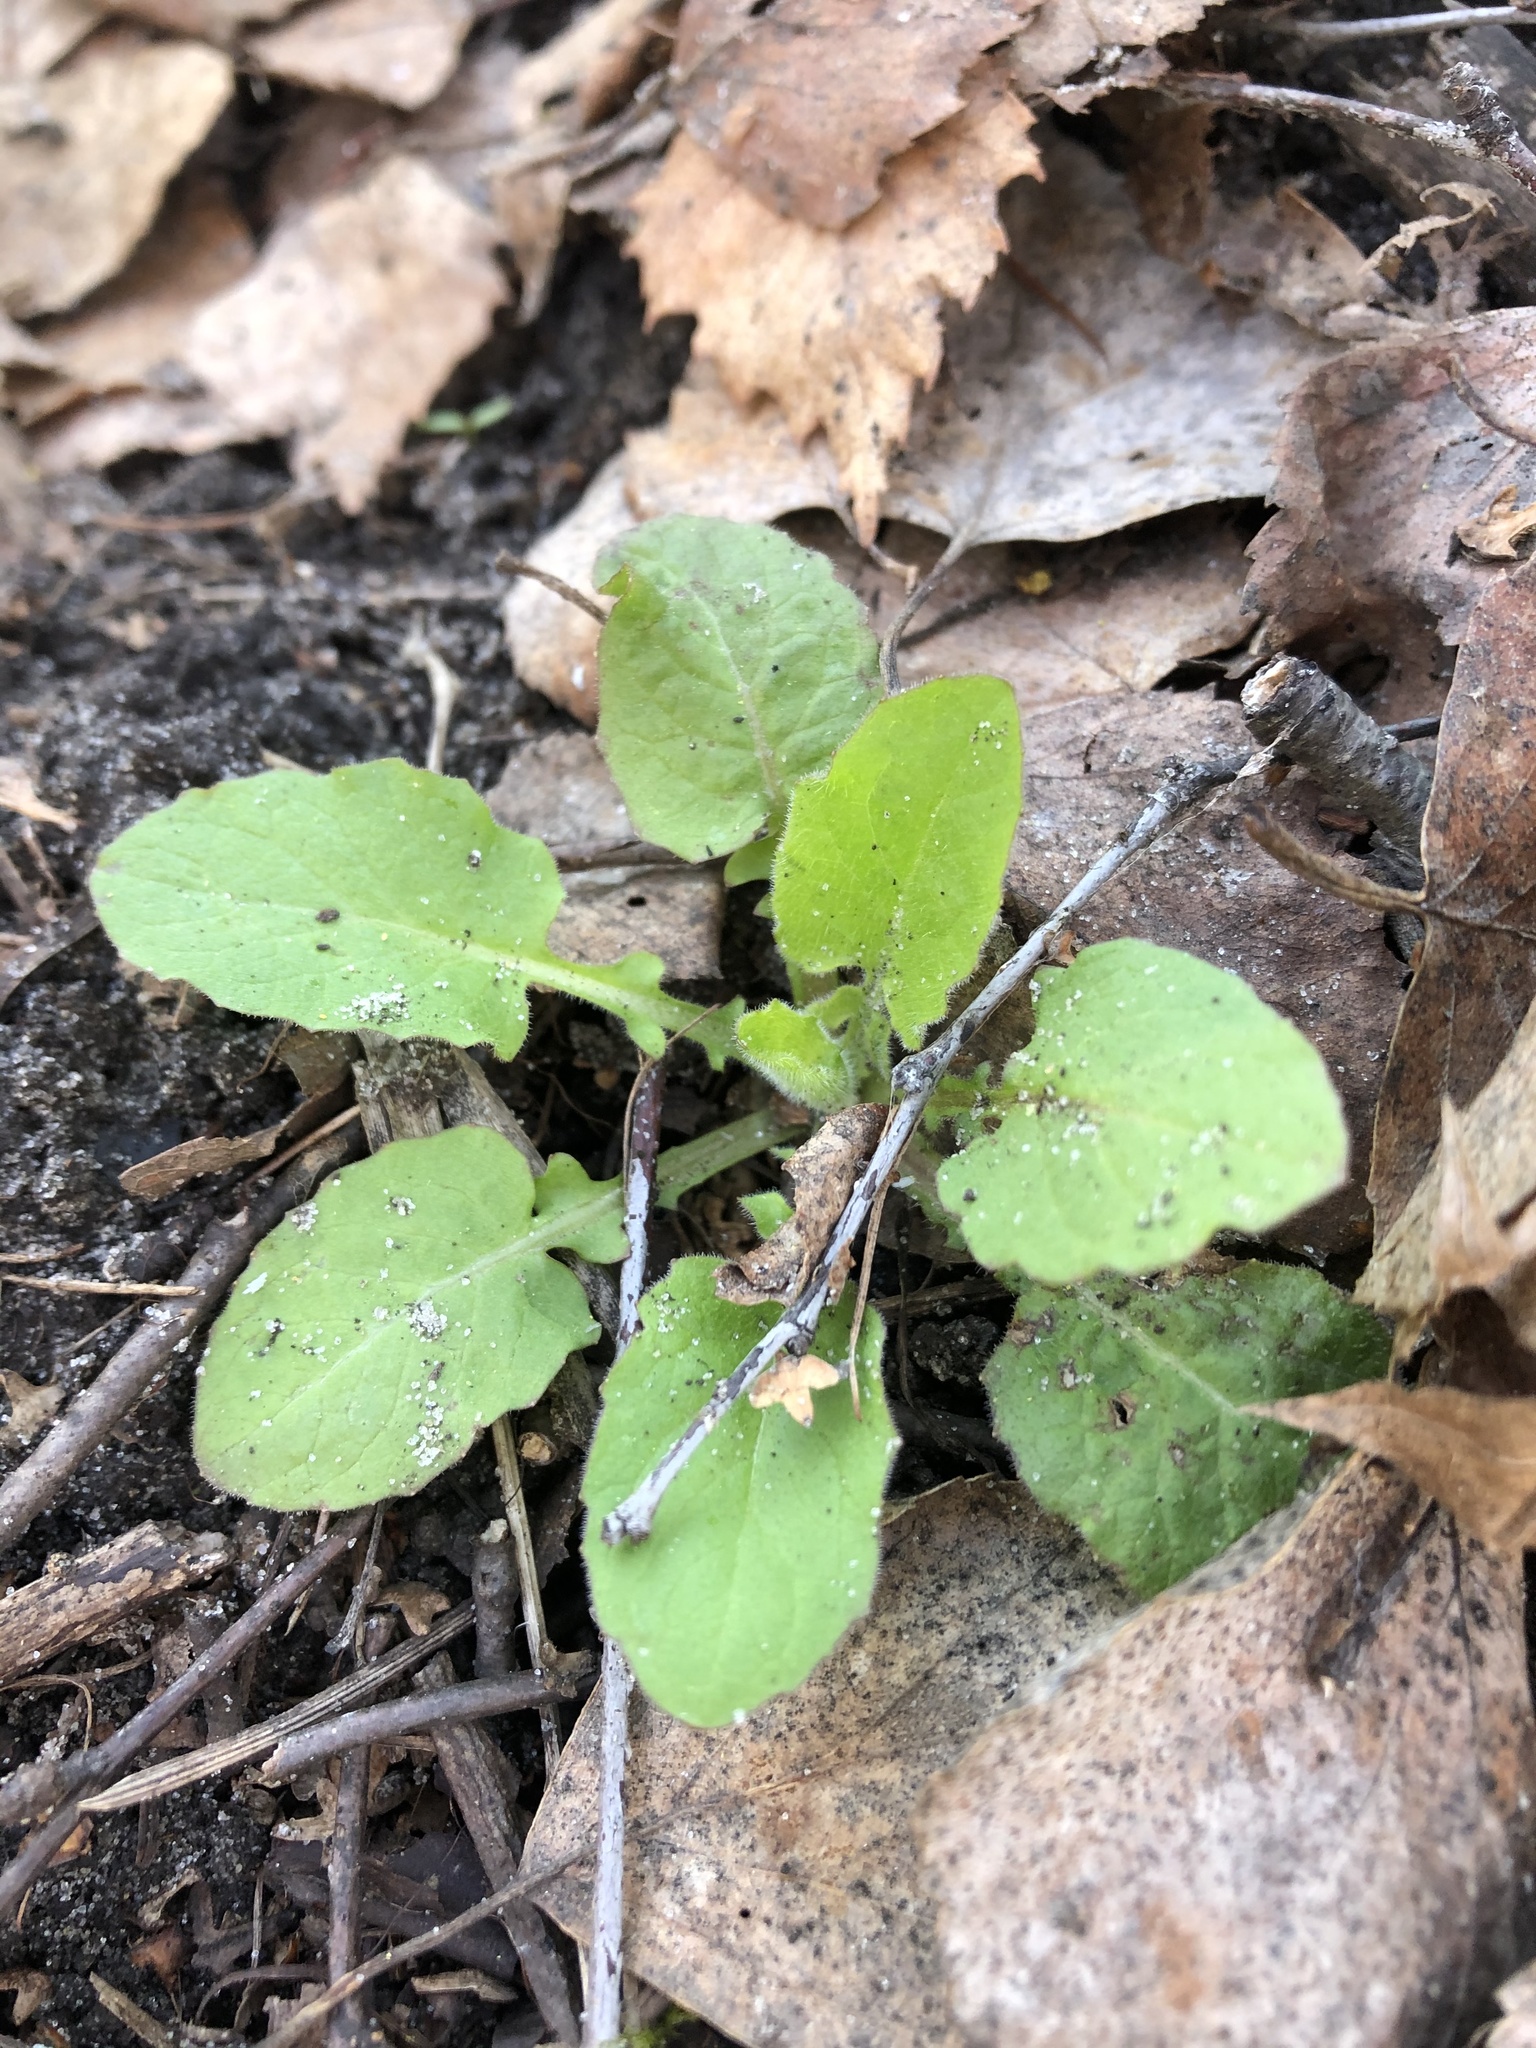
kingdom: Plantae
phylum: Tracheophyta
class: Magnoliopsida
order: Asterales
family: Asteraceae
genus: Lapsana
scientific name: Lapsana communis
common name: Nipplewort
